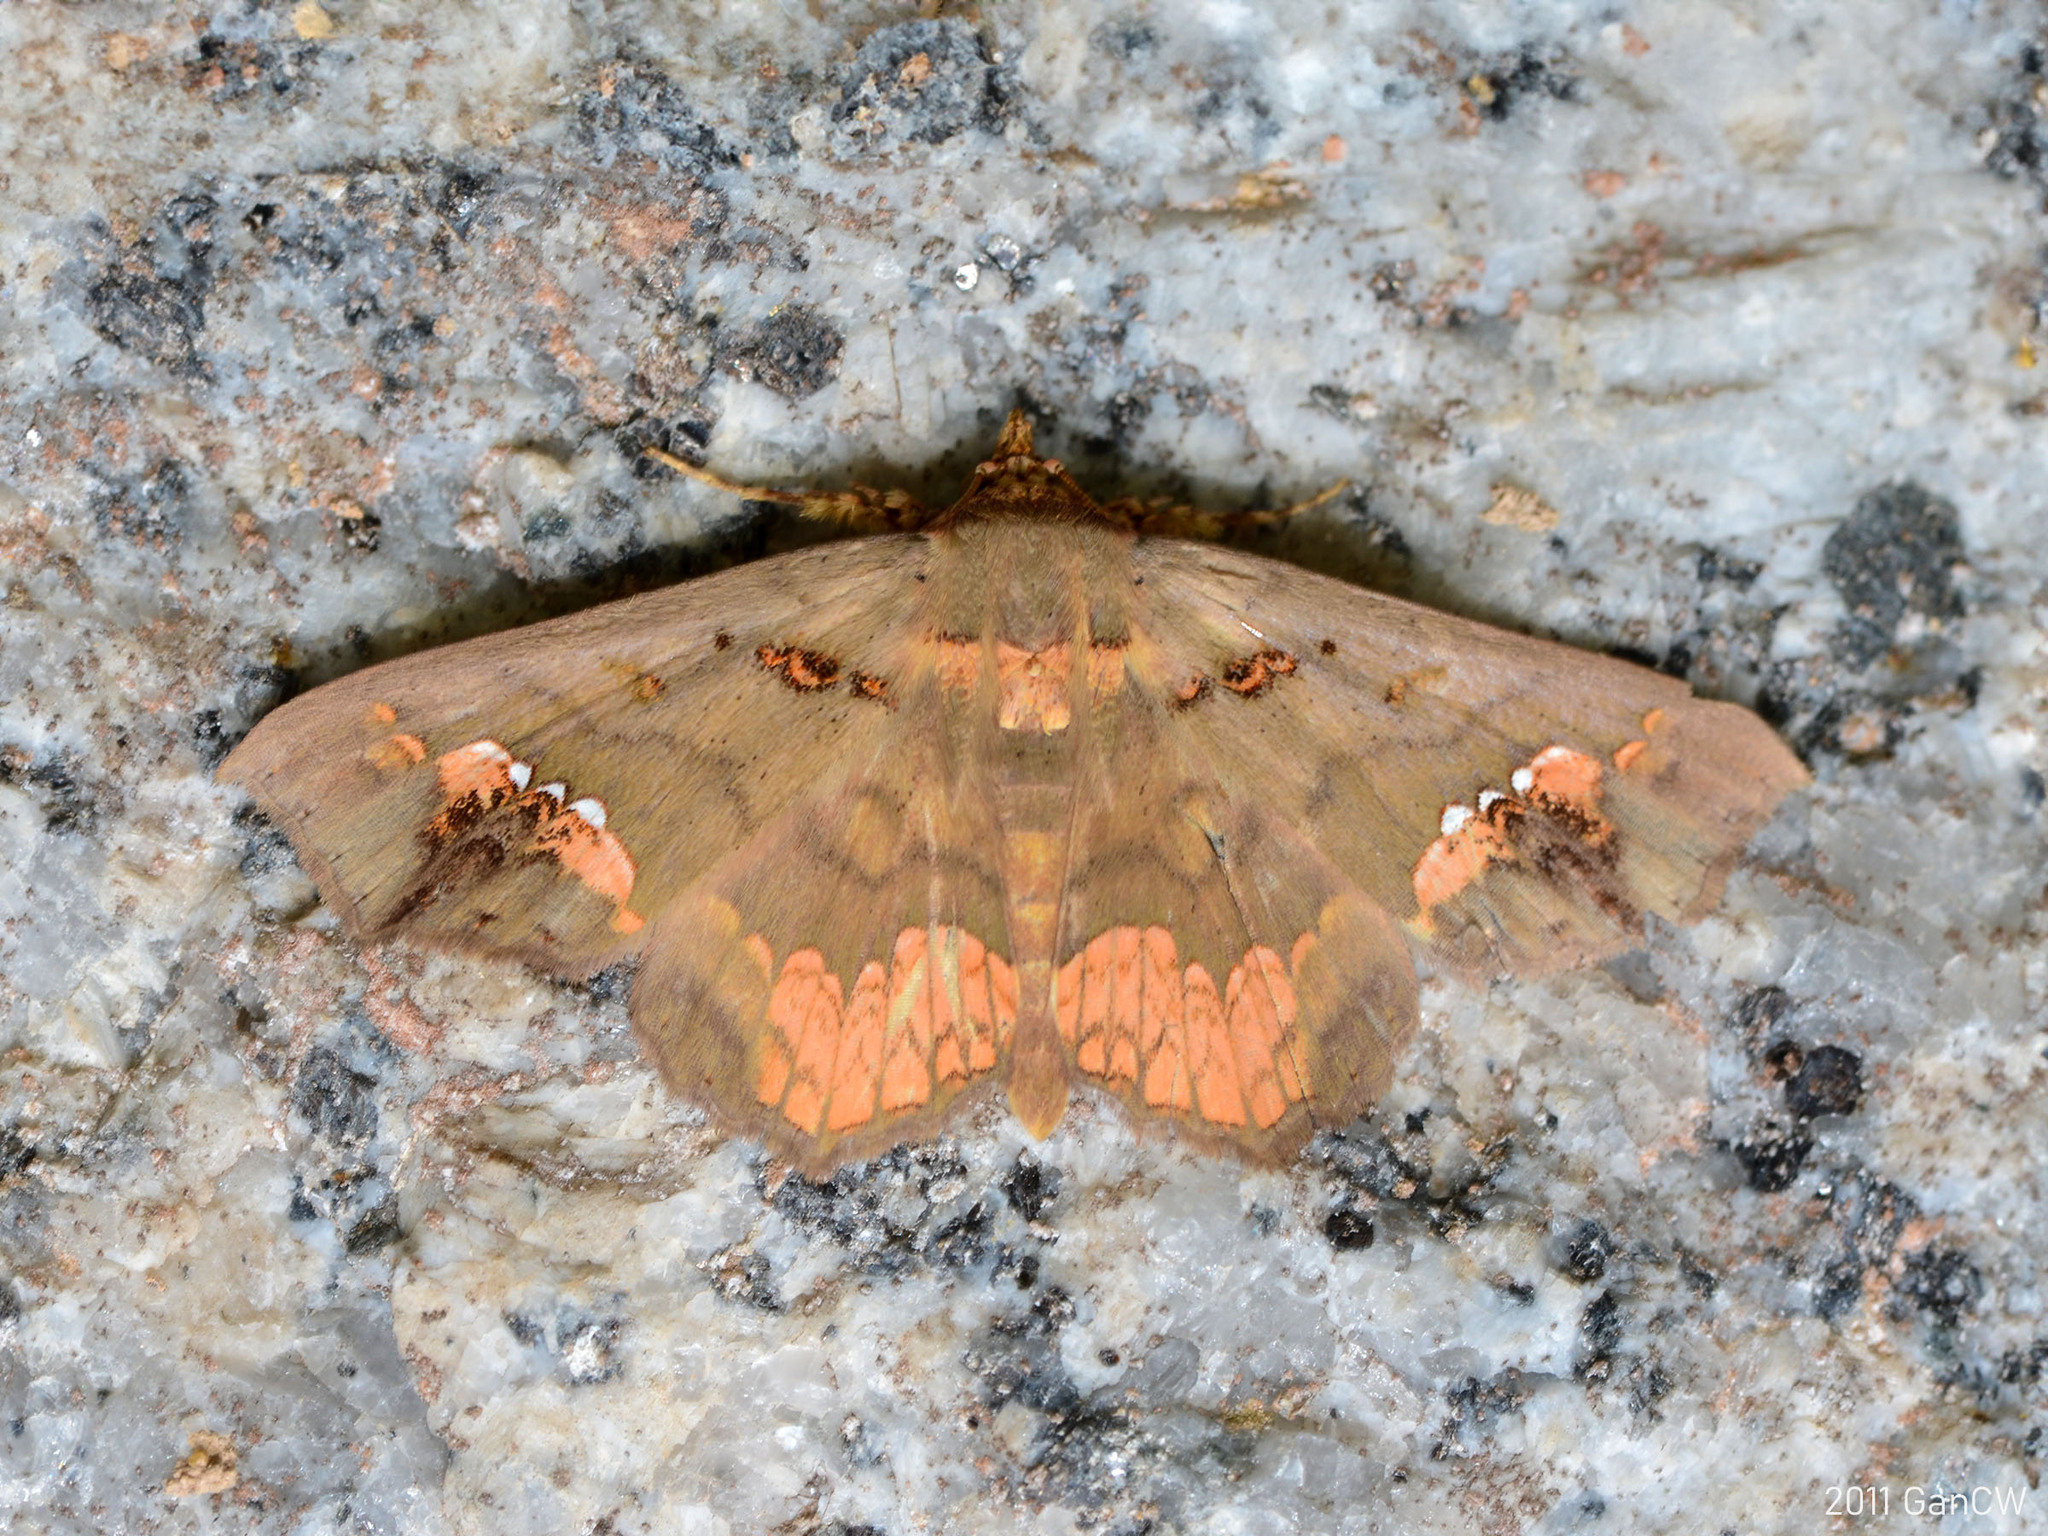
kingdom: Animalia
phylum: Arthropoda
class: Insecta
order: Lepidoptera
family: Erebidae
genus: Lopharthrum
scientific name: Lopharthrum comprimens
